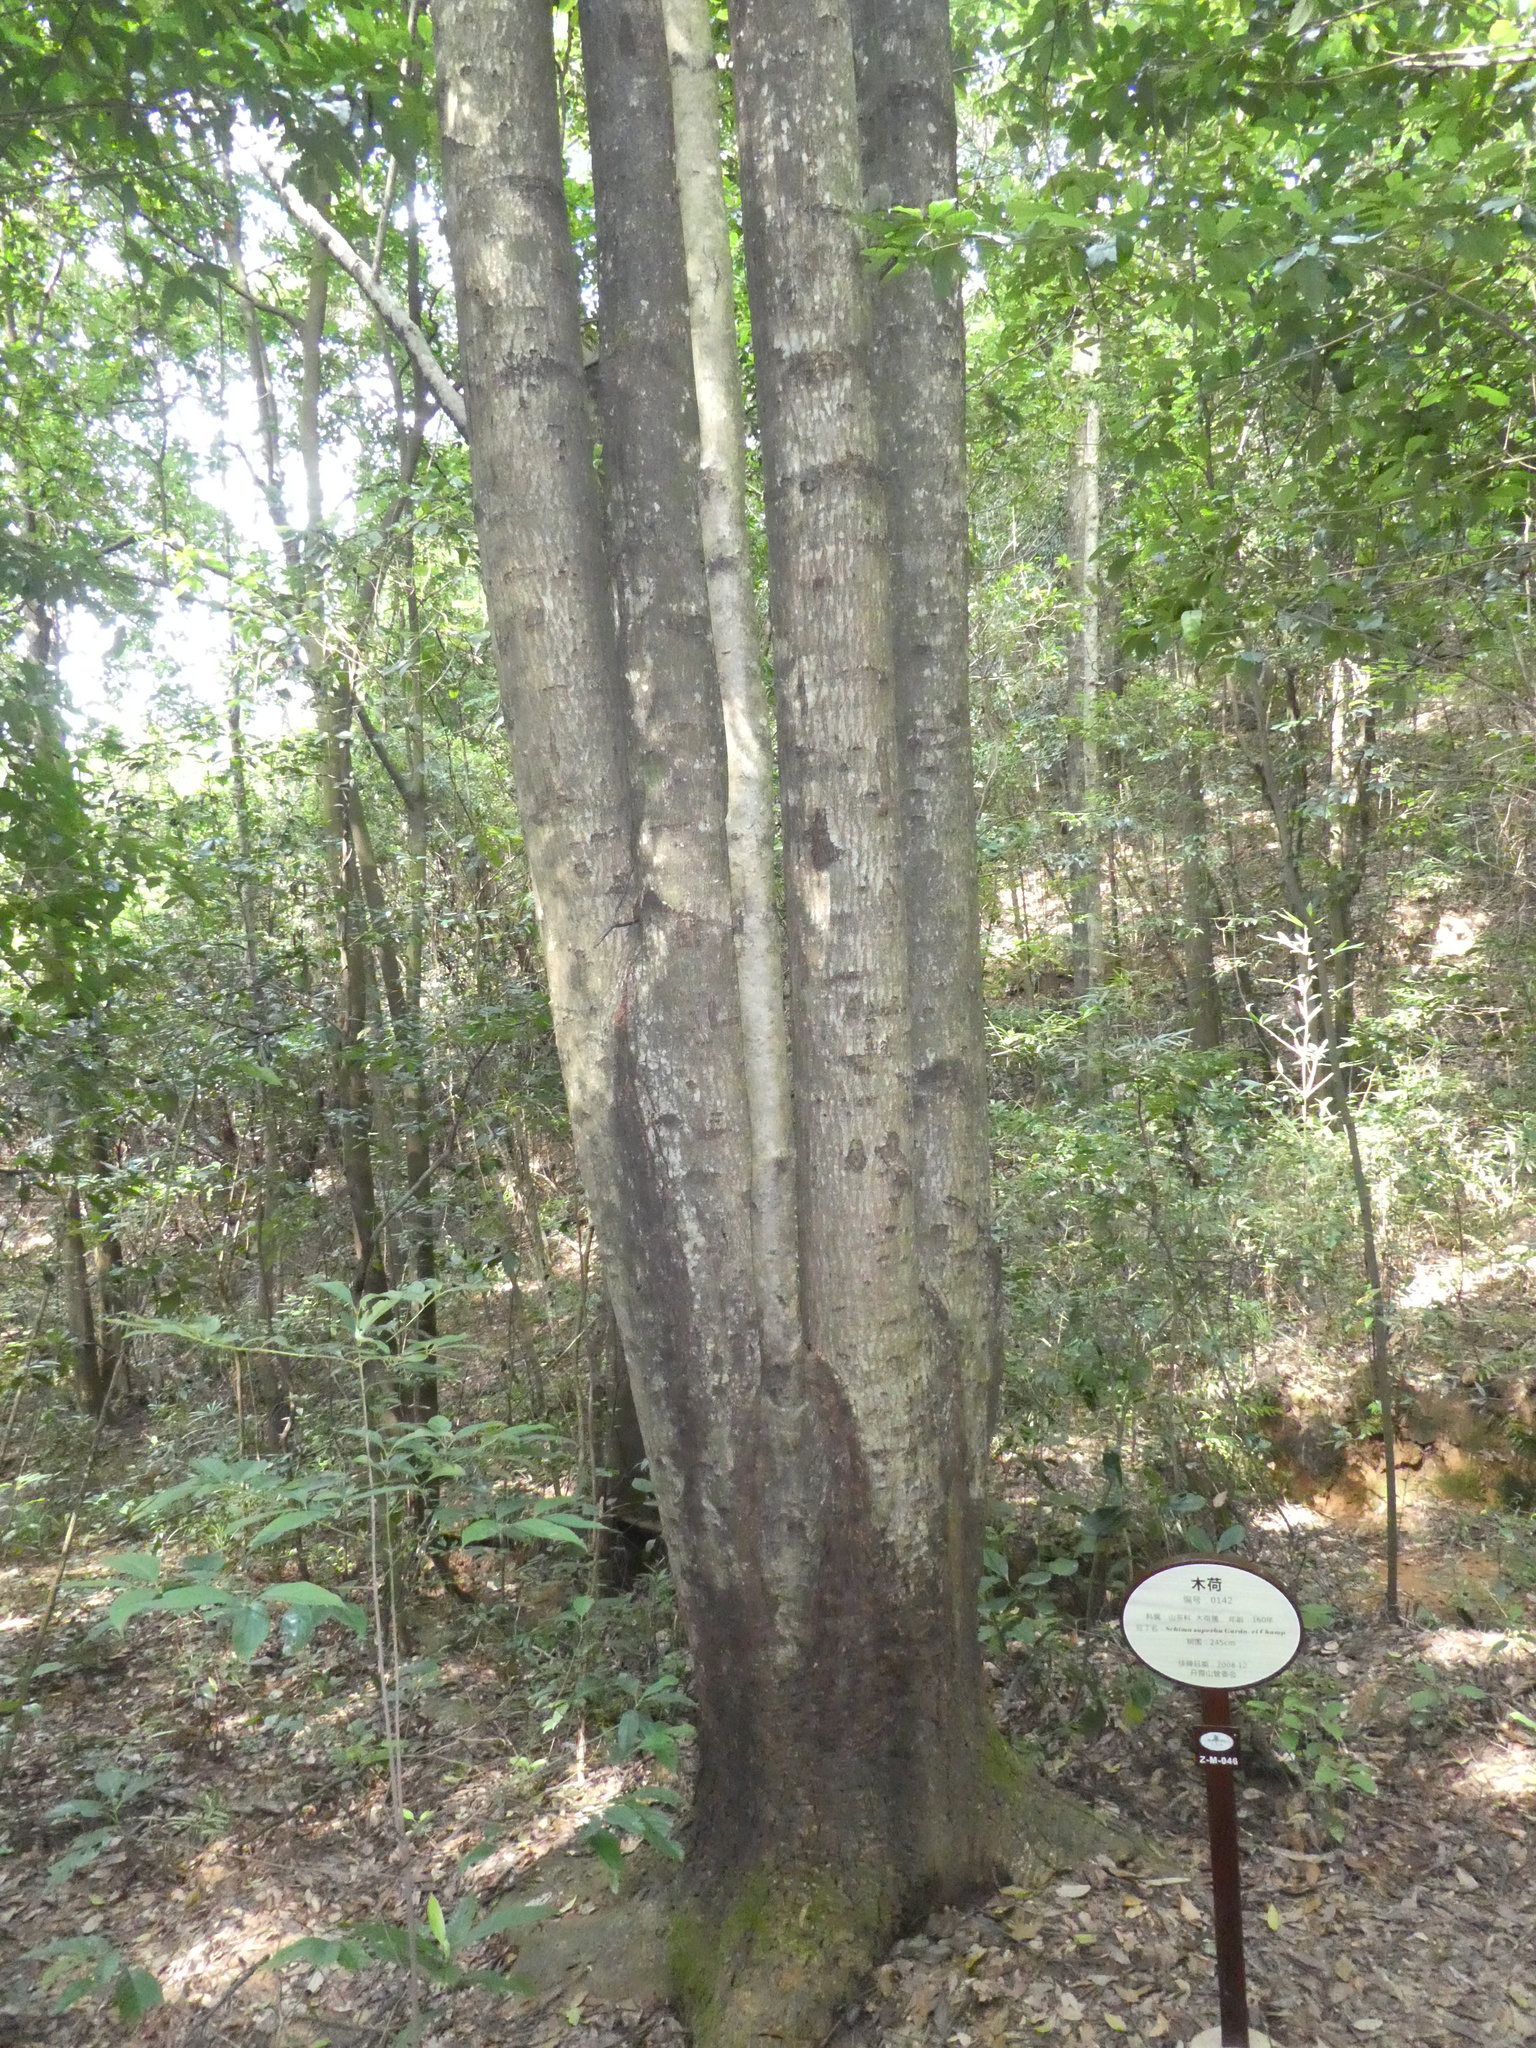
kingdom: Plantae
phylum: Tracheophyta
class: Magnoliopsida
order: Ericales
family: Theaceae
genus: Schima
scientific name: Schima superba
